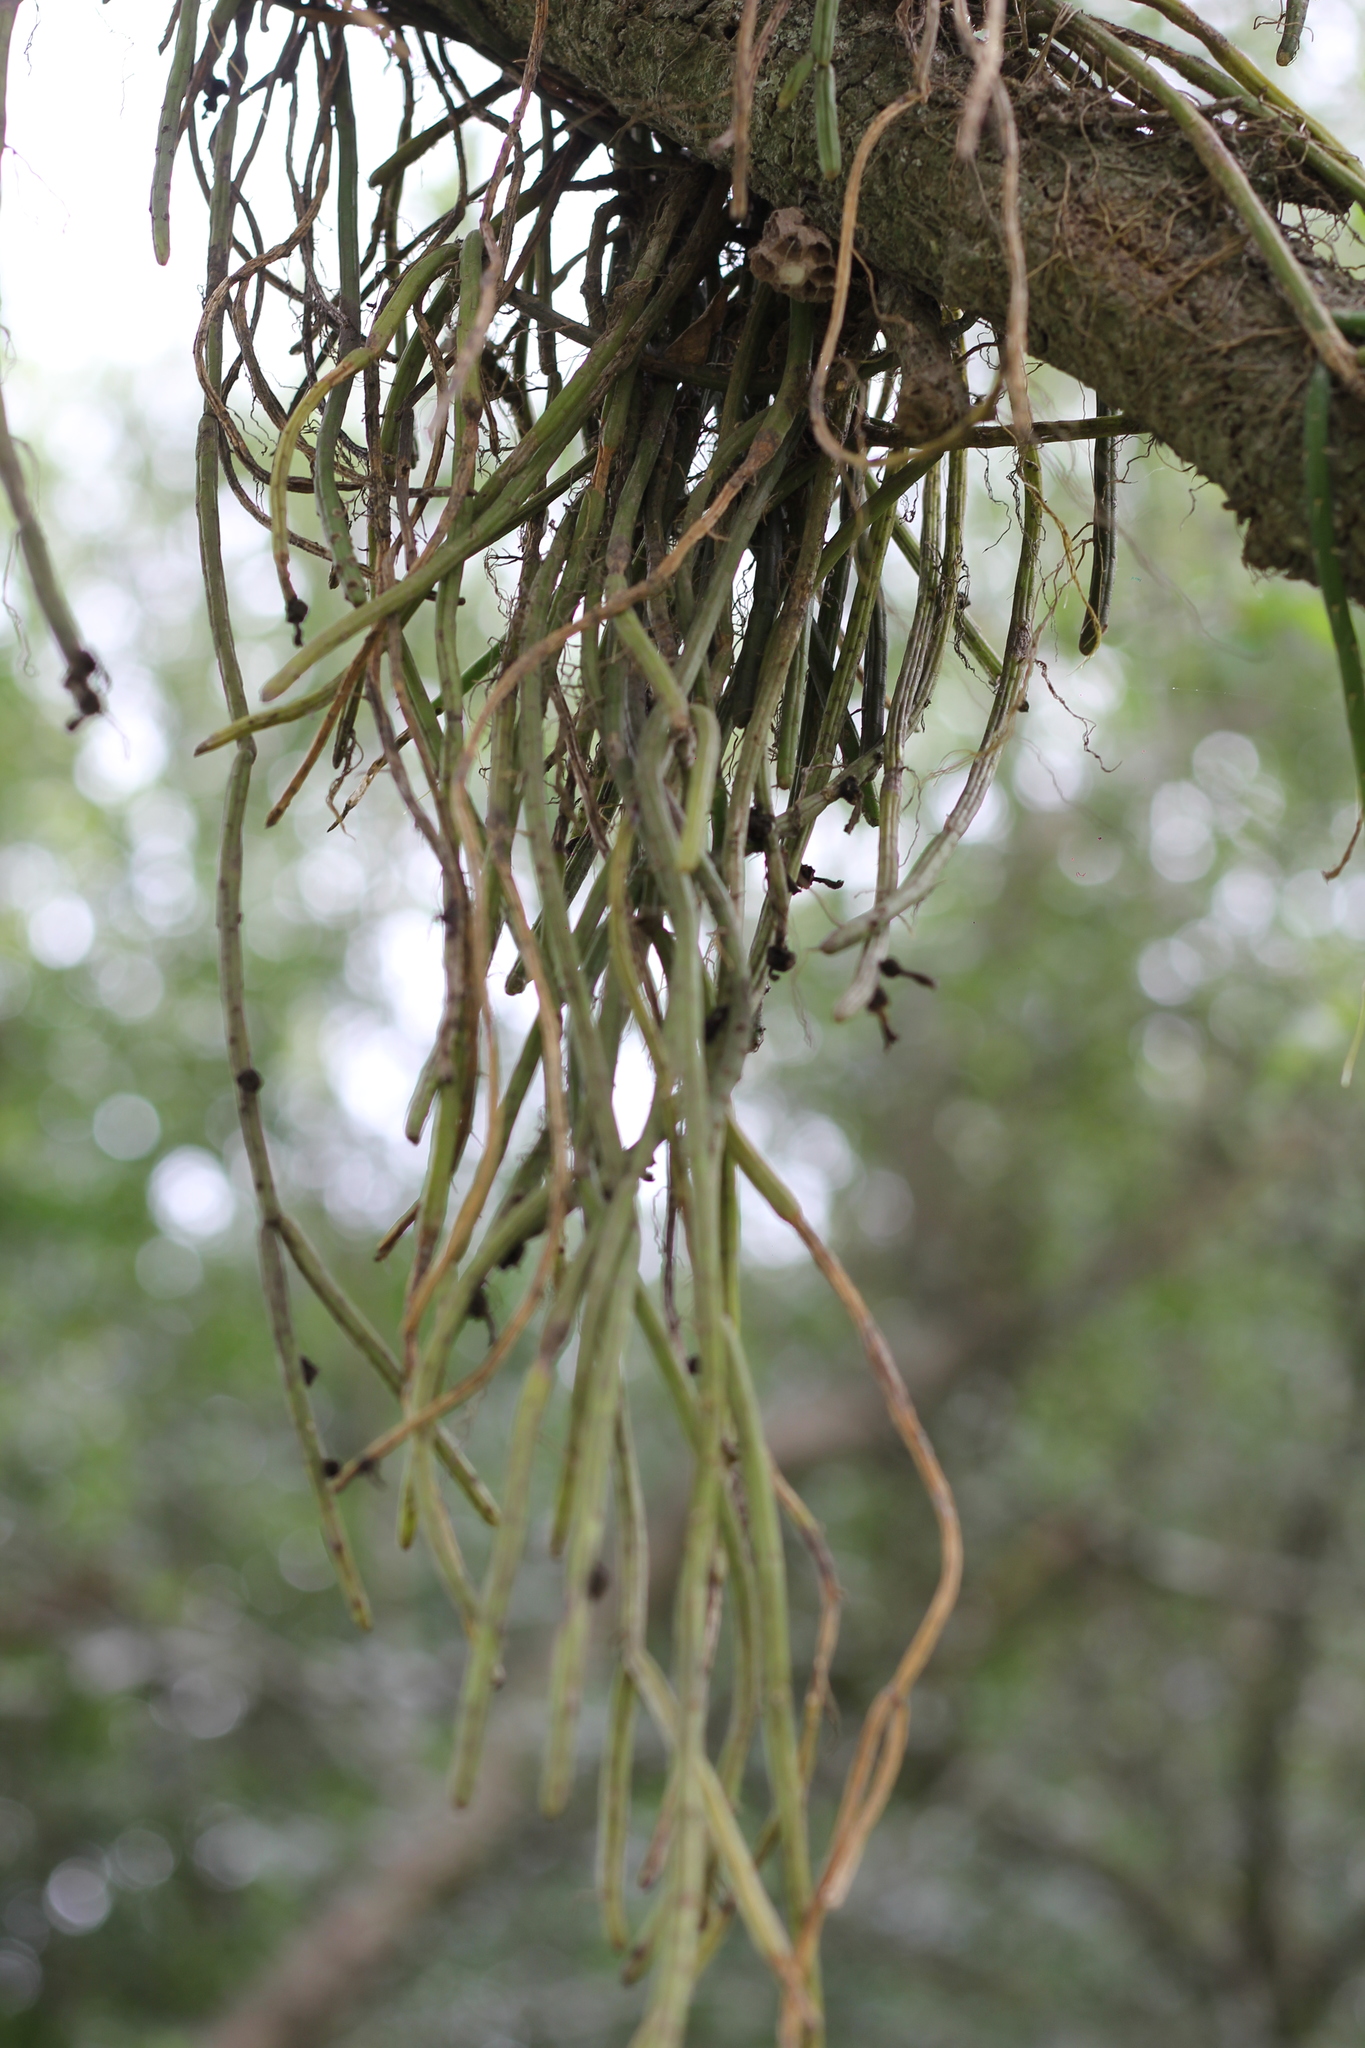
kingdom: Plantae
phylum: Tracheophyta
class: Magnoliopsida
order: Caryophyllales
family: Cactaceae
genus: Lepismium
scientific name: Lepismium lumbricoides
